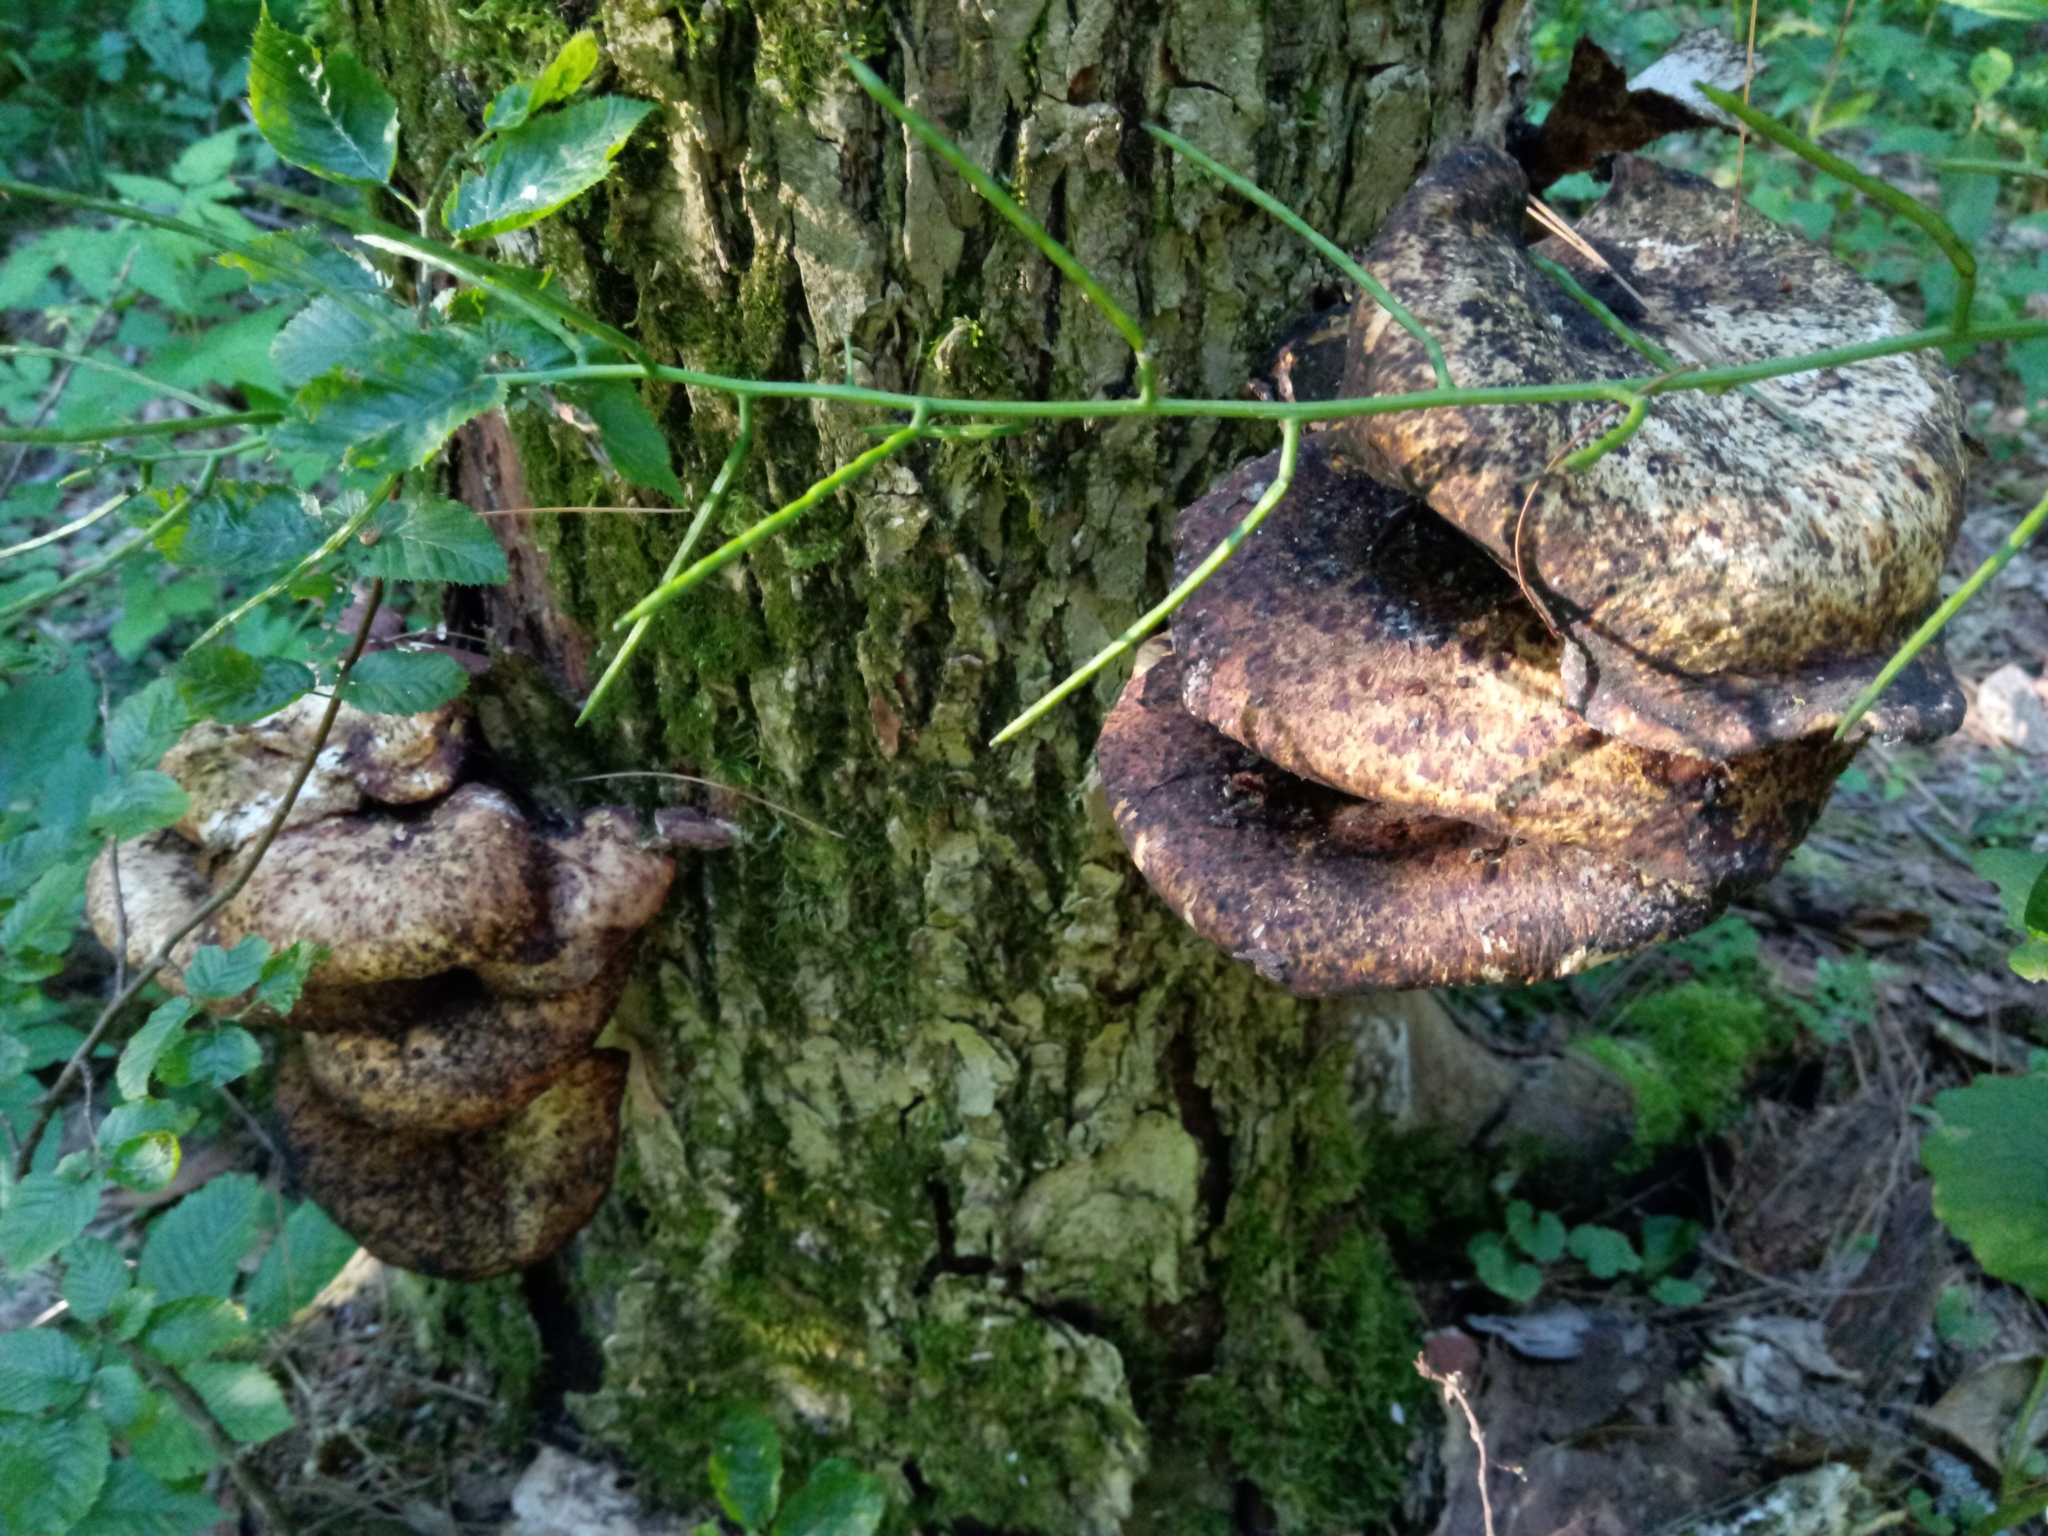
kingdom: Fungi
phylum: Basidiomycota
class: Agaricomycetes
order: Polyporales
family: Polyporaceae
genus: Cerioporus
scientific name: Cerioporus squamosus
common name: Dryad's saddle
